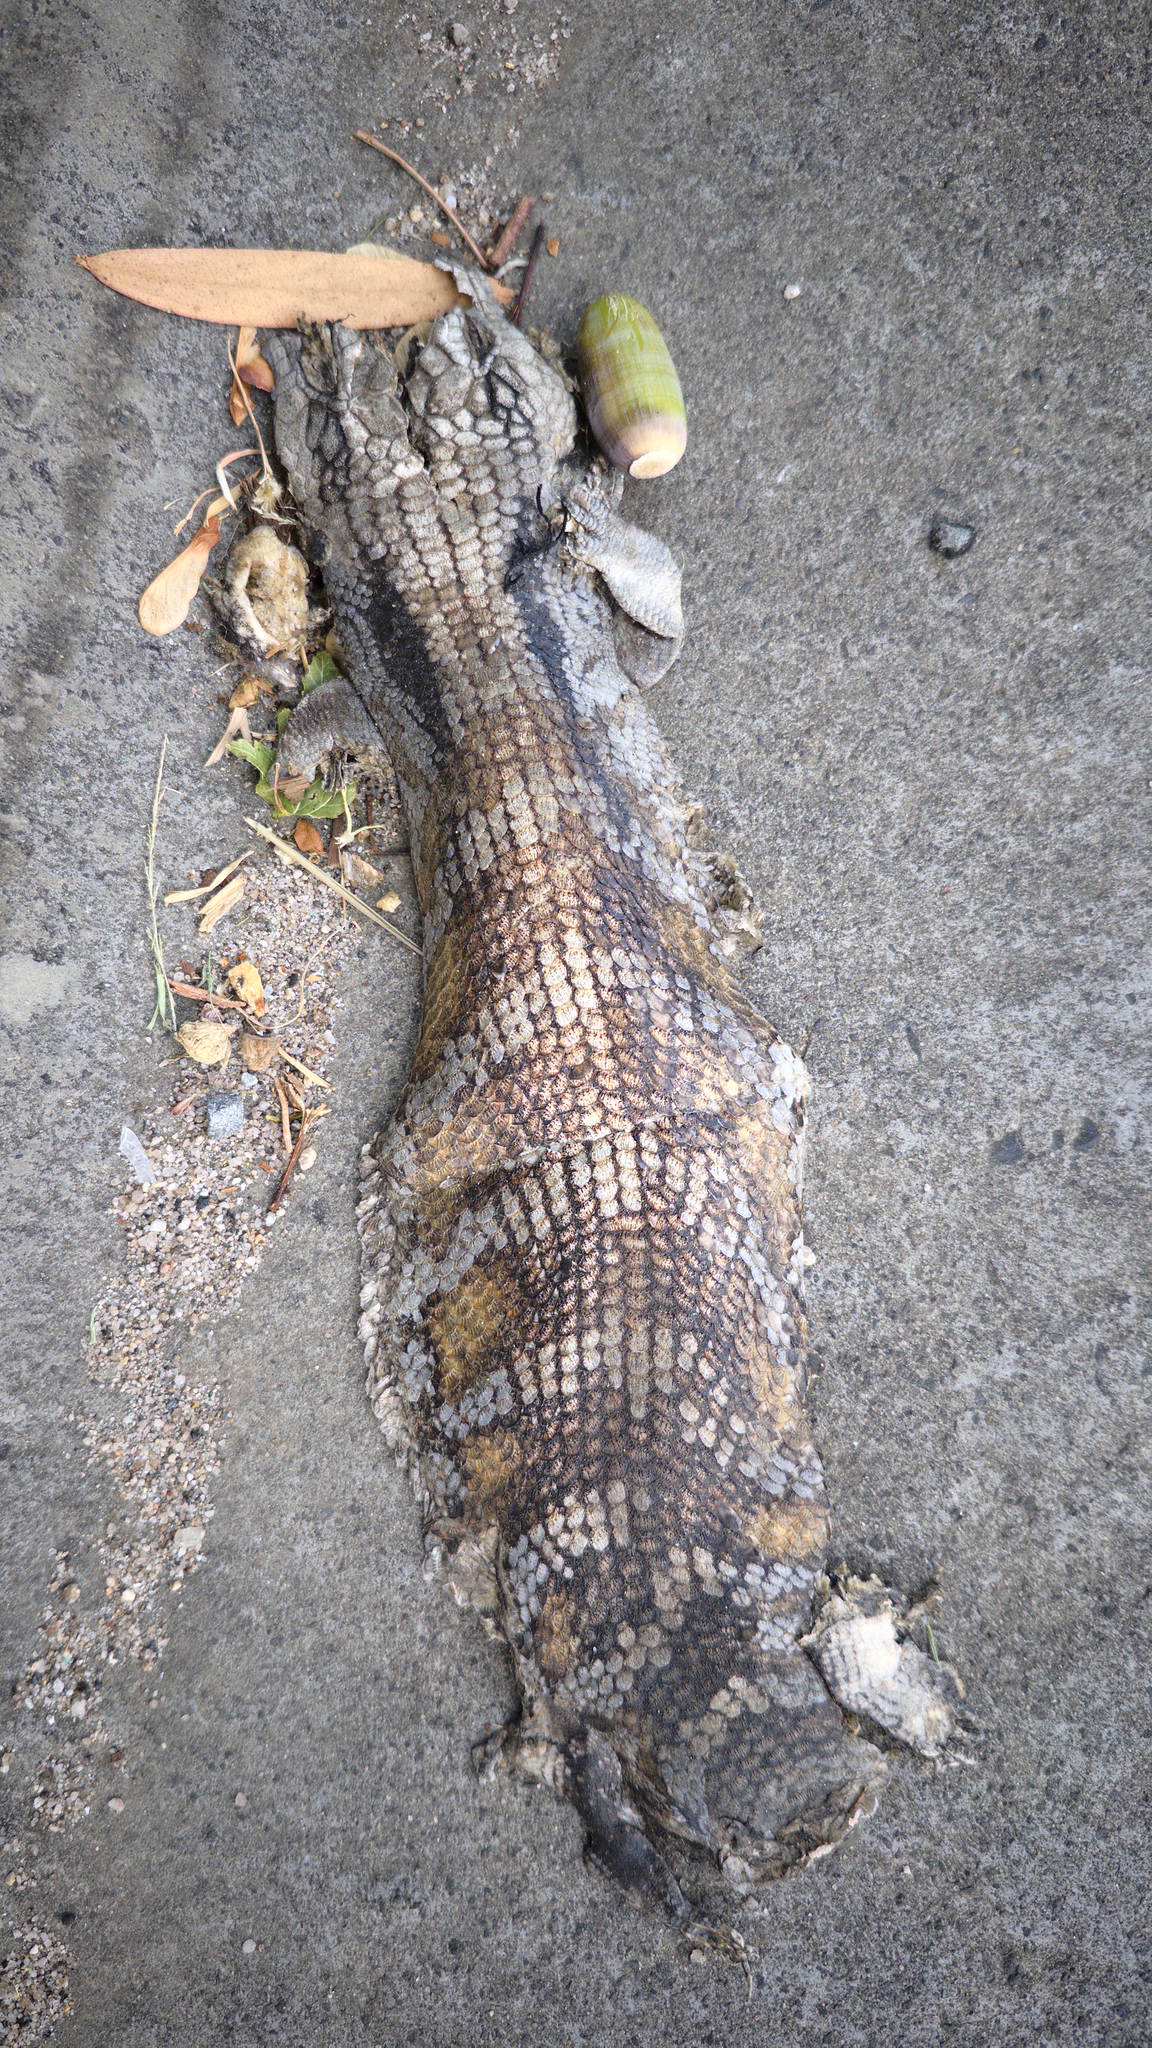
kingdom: Animalia
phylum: Chordata
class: Squamata
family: Scincidae
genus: Tiliqua
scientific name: Tiliqua scincoides
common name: Common bluetongue
